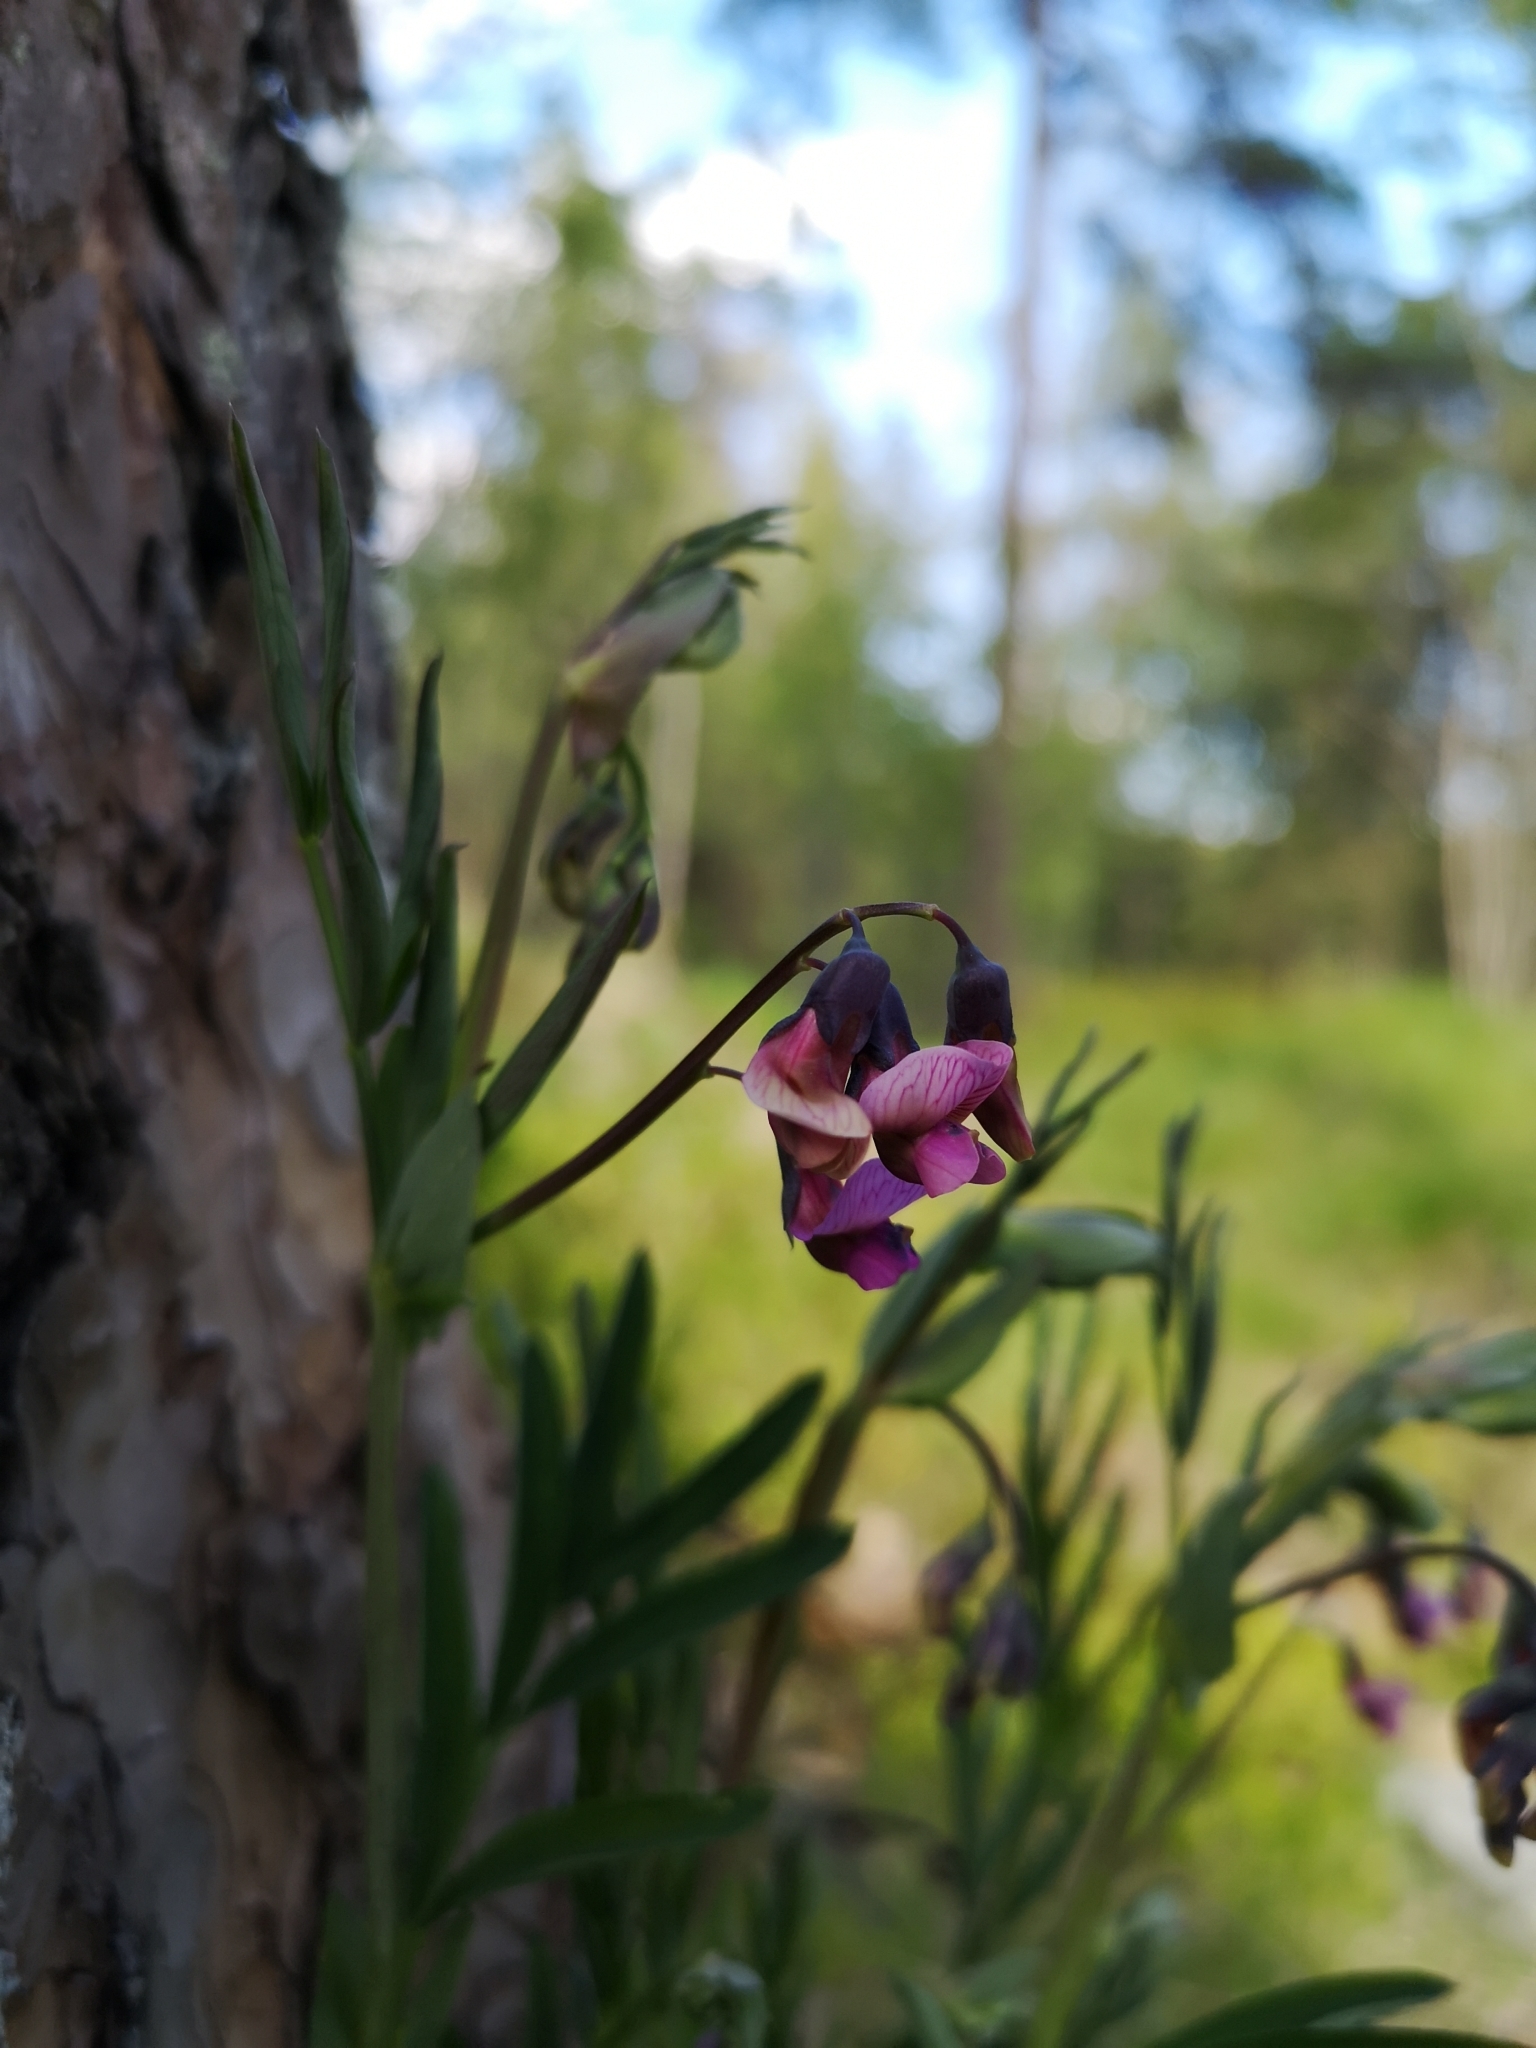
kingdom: Plantae
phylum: Tracheophyta
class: Magnoliopsida
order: Fabales
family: Fabaceae
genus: Lathyrus
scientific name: Lathyrus linifolius
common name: Bitter-vetch
